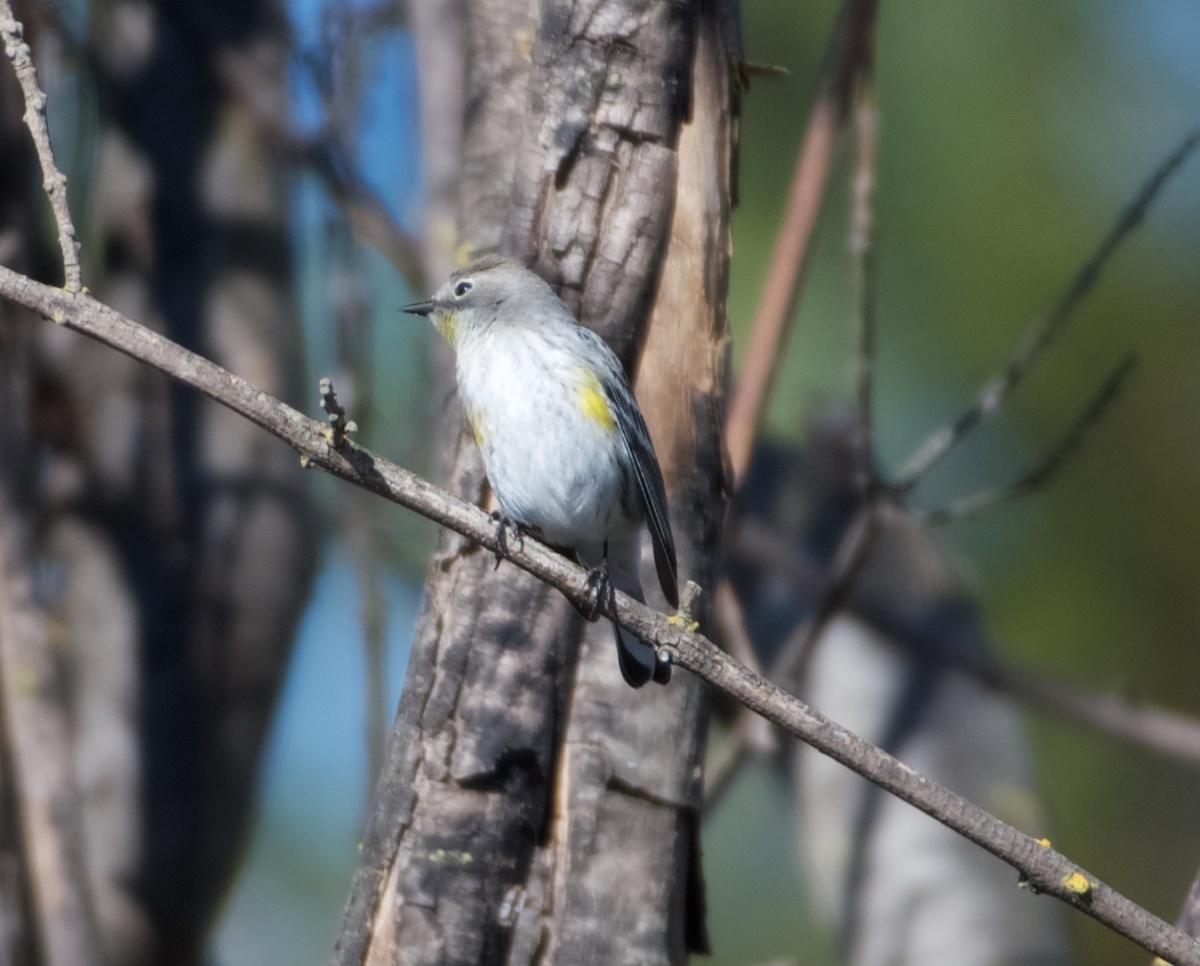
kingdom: Animalia
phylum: Chordata
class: Aves
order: Passeriformes
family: Parulidae
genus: Setophaga
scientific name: Setophaga coronata
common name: Myrtle warbler
